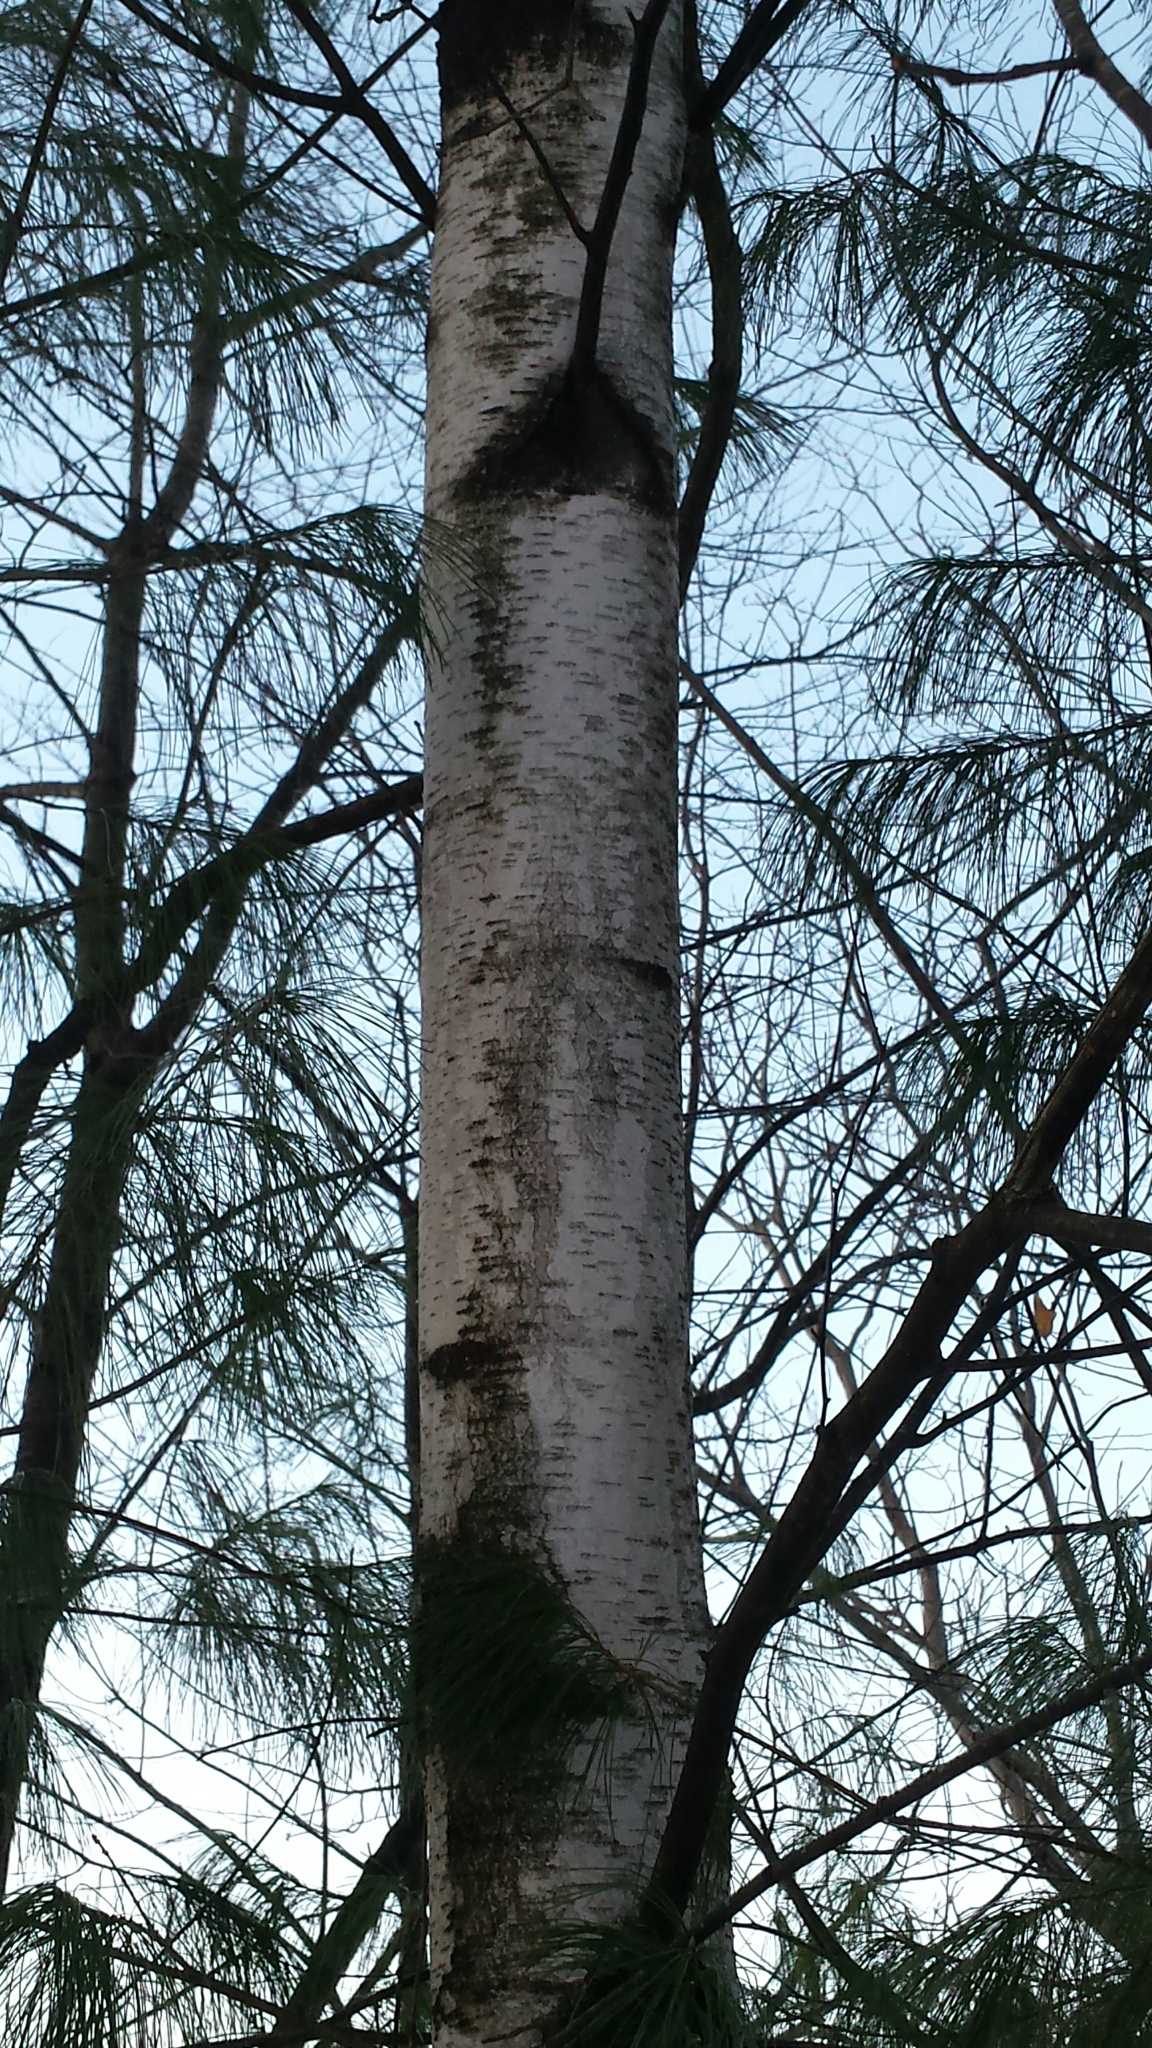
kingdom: Plantae
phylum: Tracheophyta
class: Magnoliopsida
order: Fagales
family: Betulaceae
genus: Betula
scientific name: Betula populifolia
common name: Fire birch
